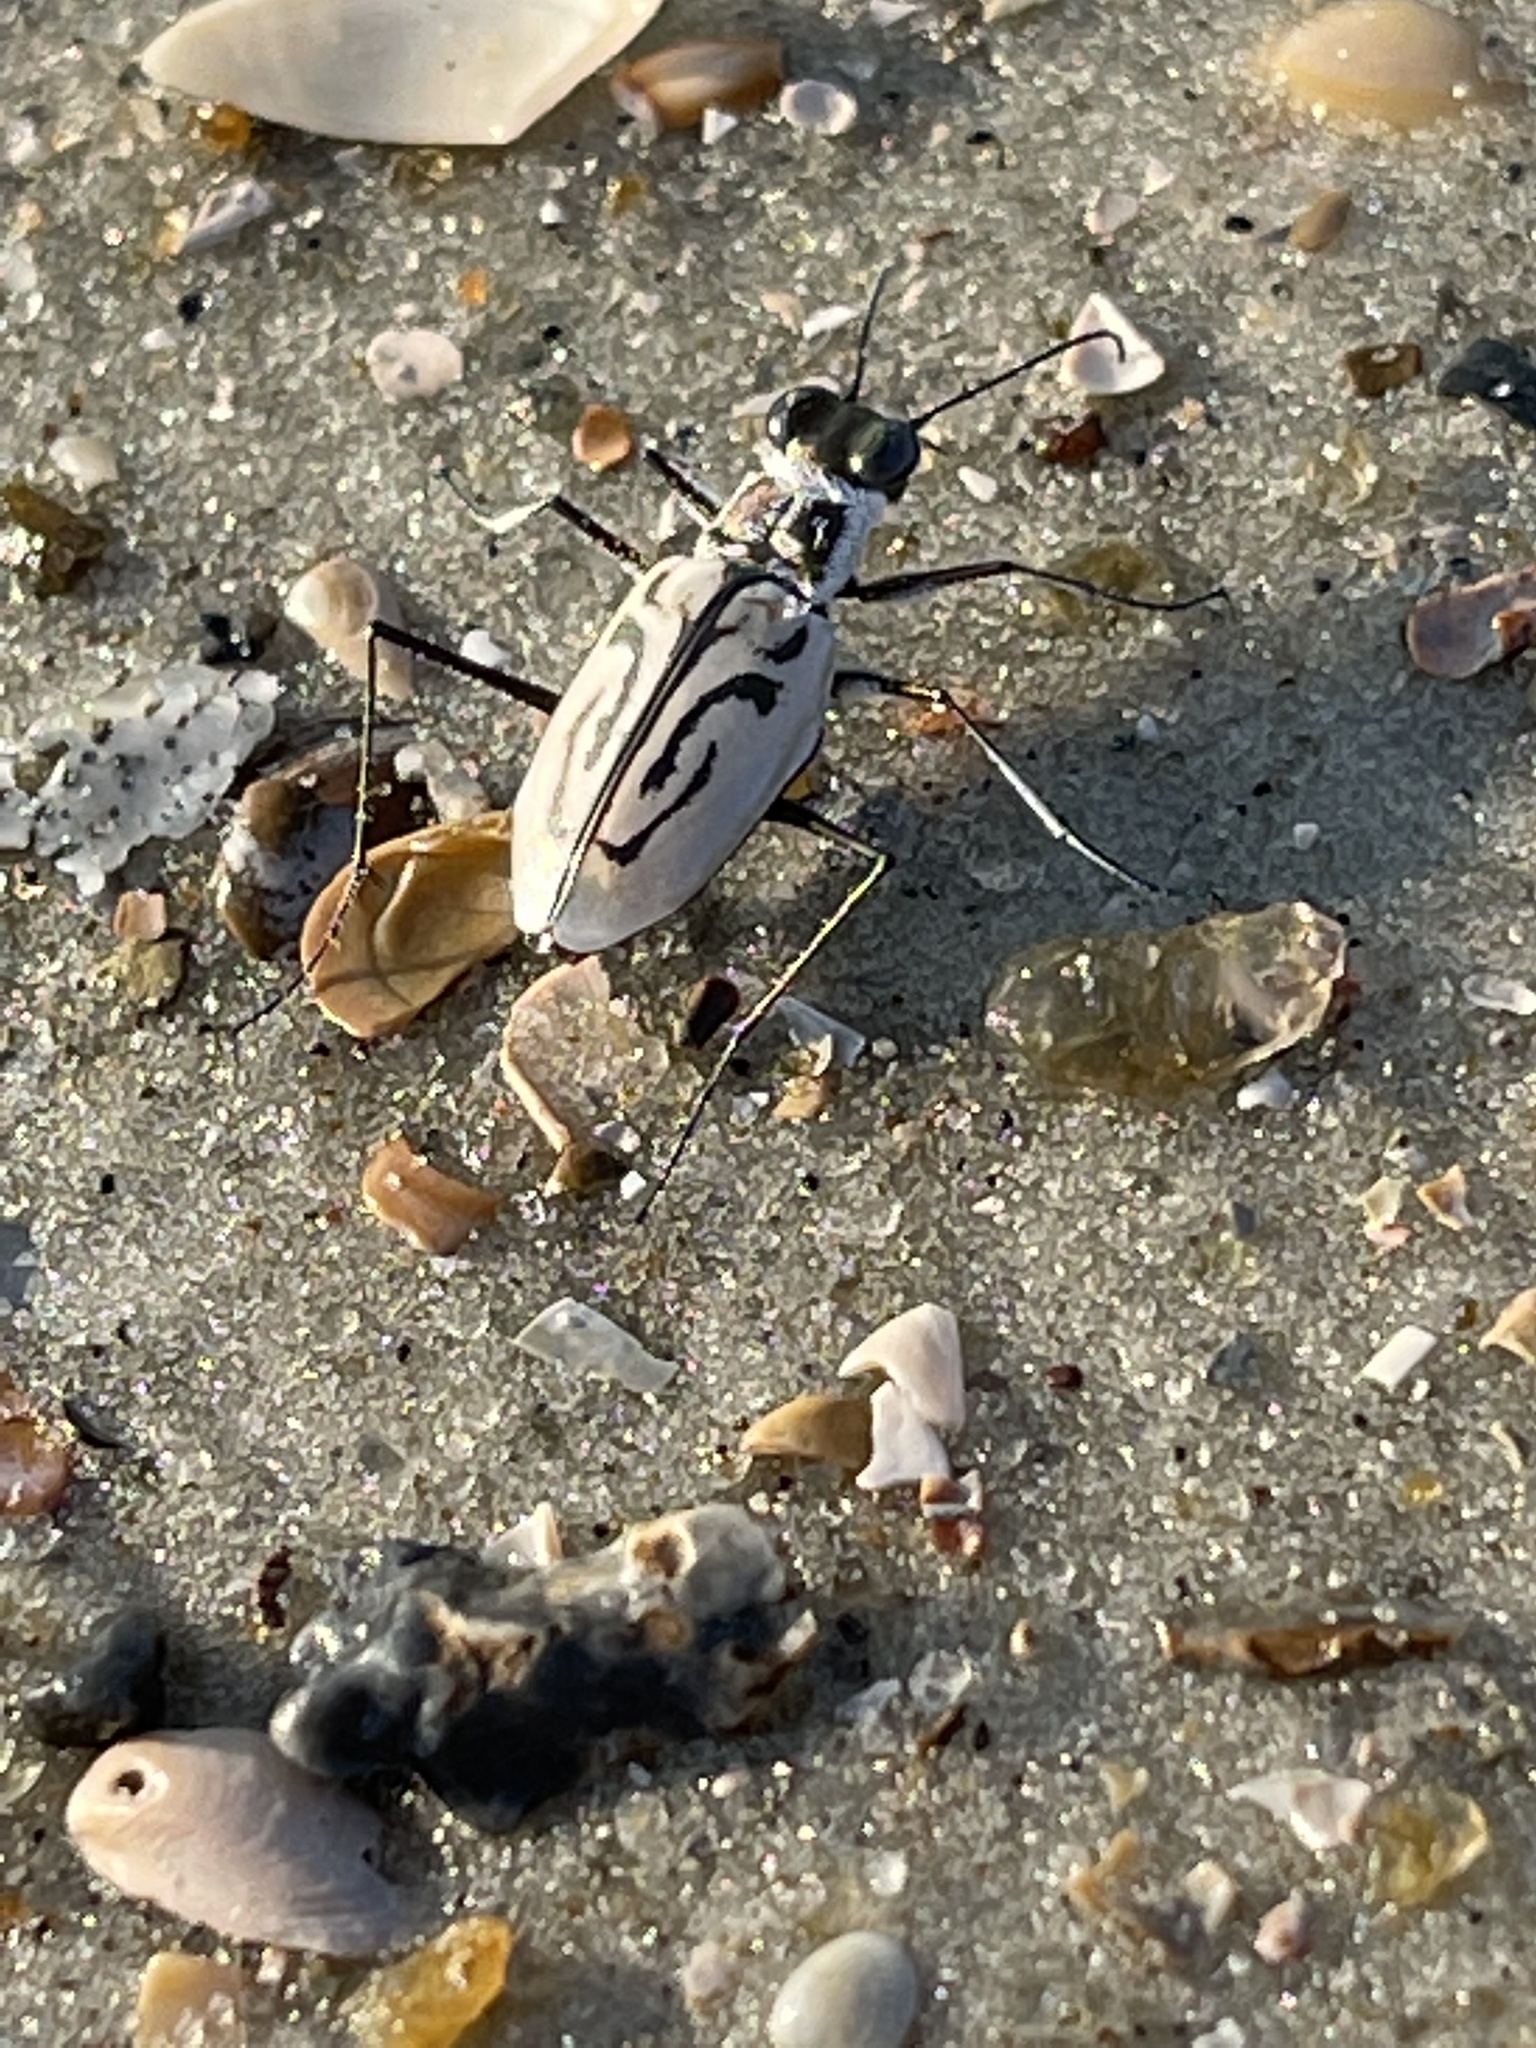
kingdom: Animalia
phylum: Arthropoda
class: Insecta
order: Coleoptera
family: Carabidae
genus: Habroscelimorpha
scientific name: Habroscelimorpha dorsalis
